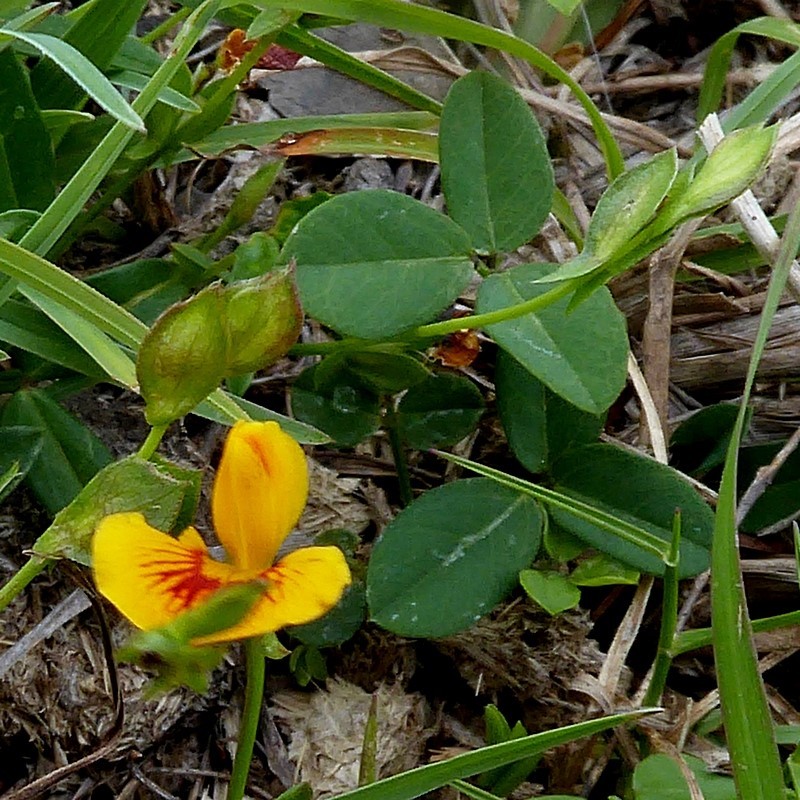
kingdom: Plantae
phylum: Tracheophyta
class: Magnoliopsida
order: Fabales
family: Fabaceae
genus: Zornia
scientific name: Zornia dyctiocarpa
